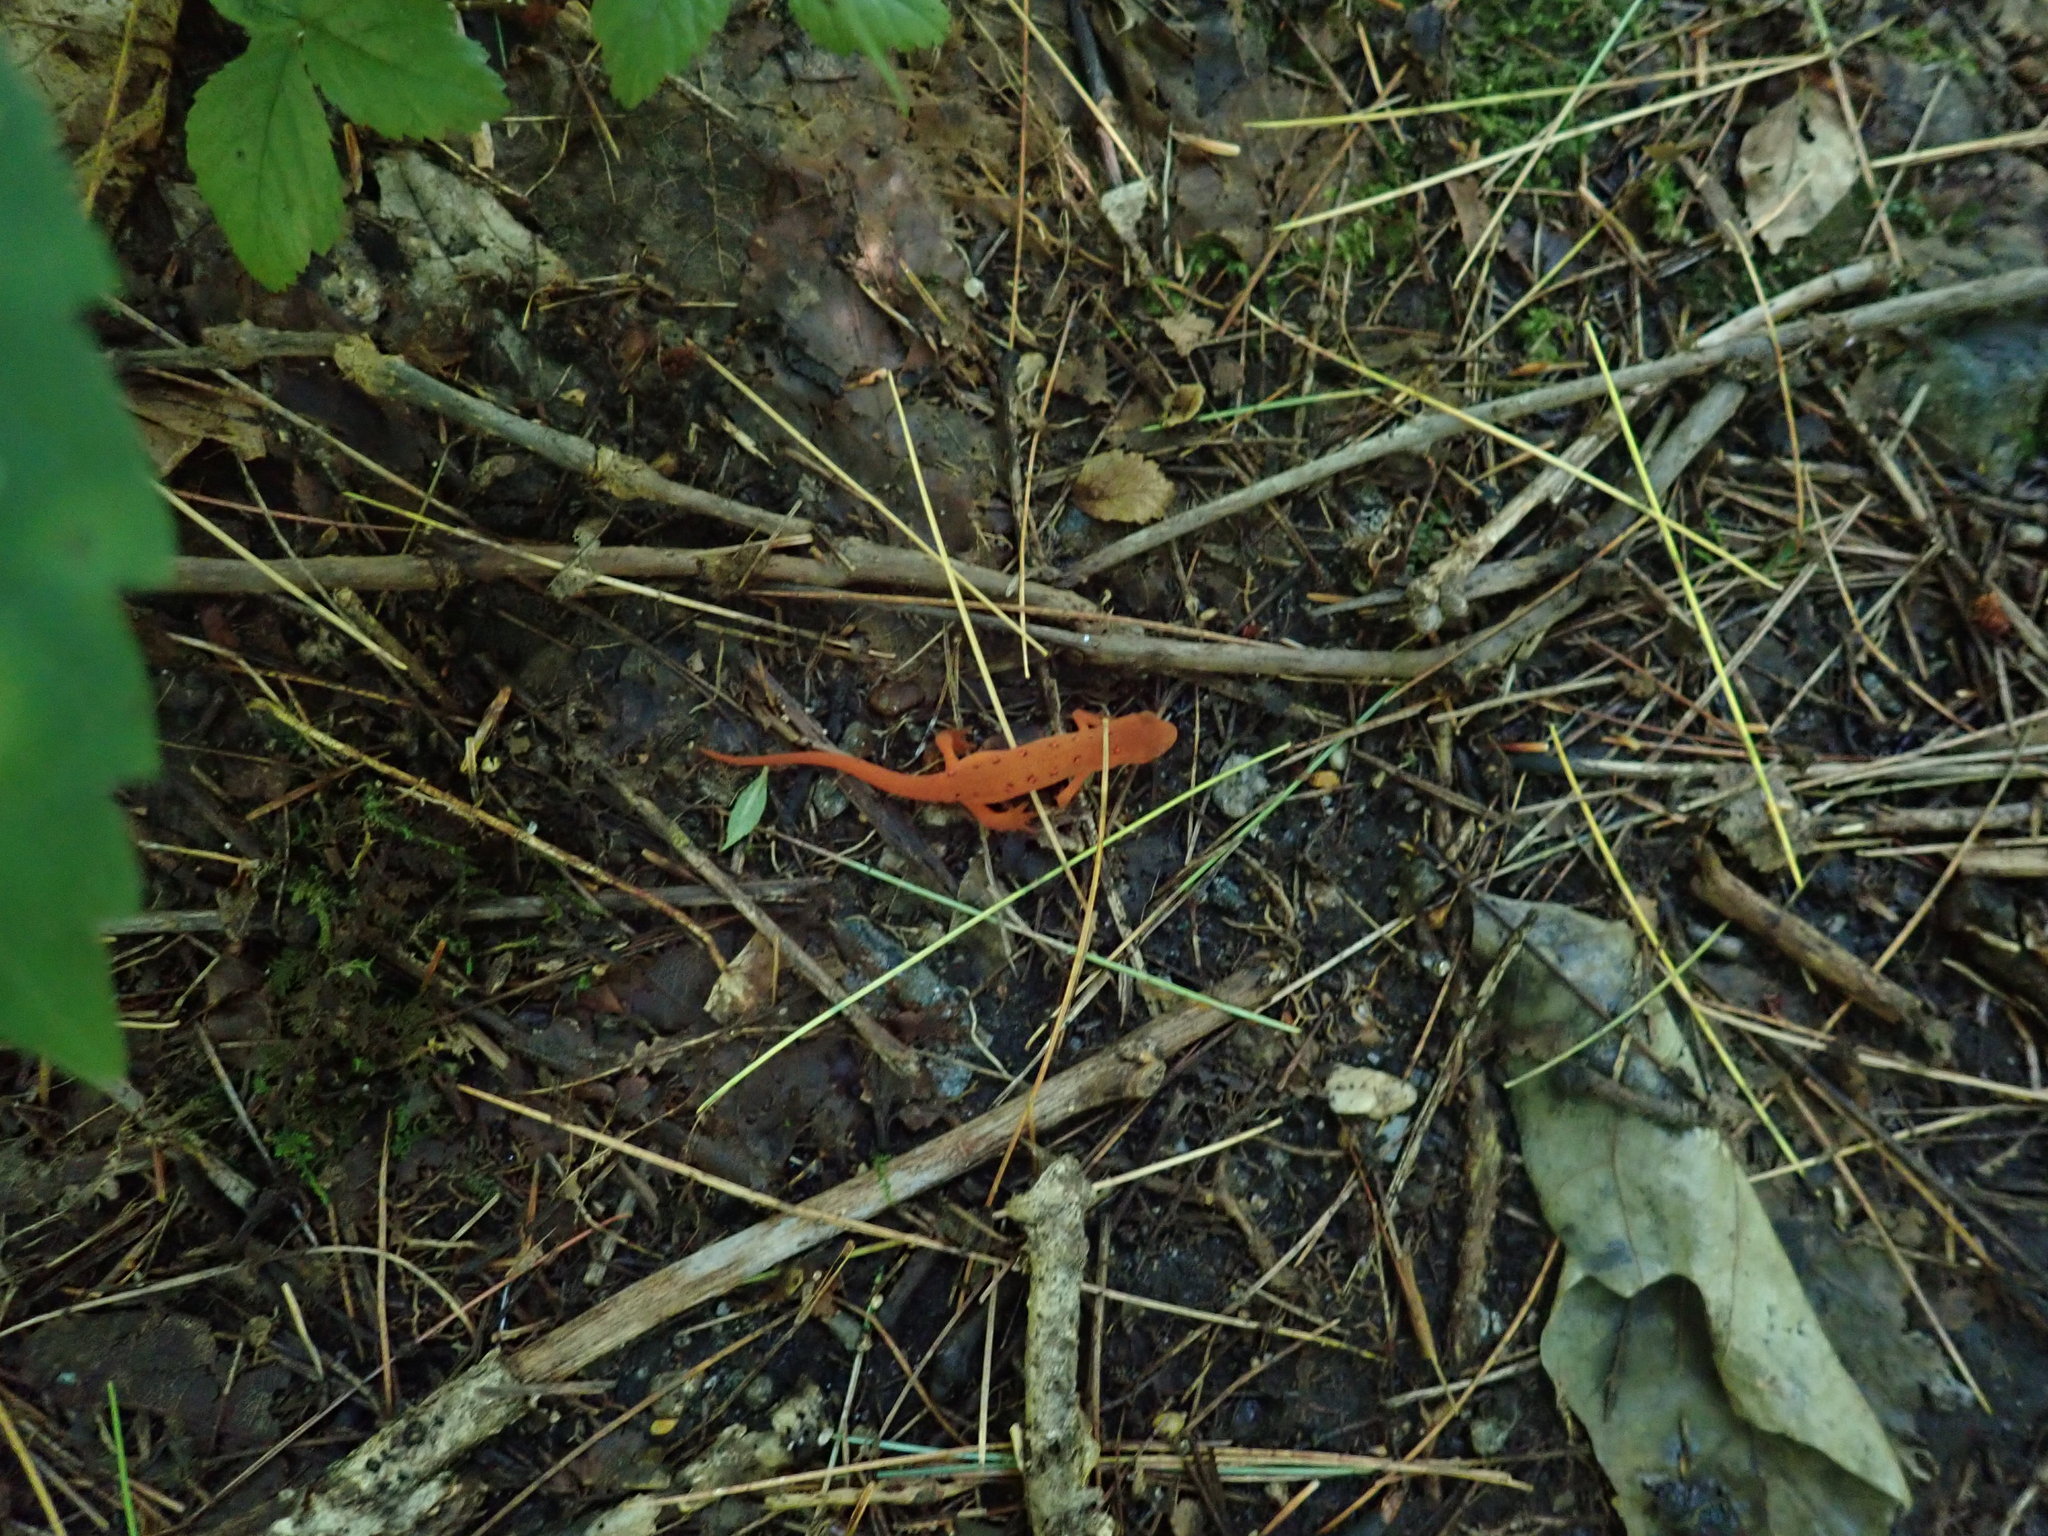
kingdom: Animalia
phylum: Chordata
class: Amphibia
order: Caudata
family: Salamandridae
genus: Notophthalmus
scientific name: Notophthalmus viridescens
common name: Eastern newt
